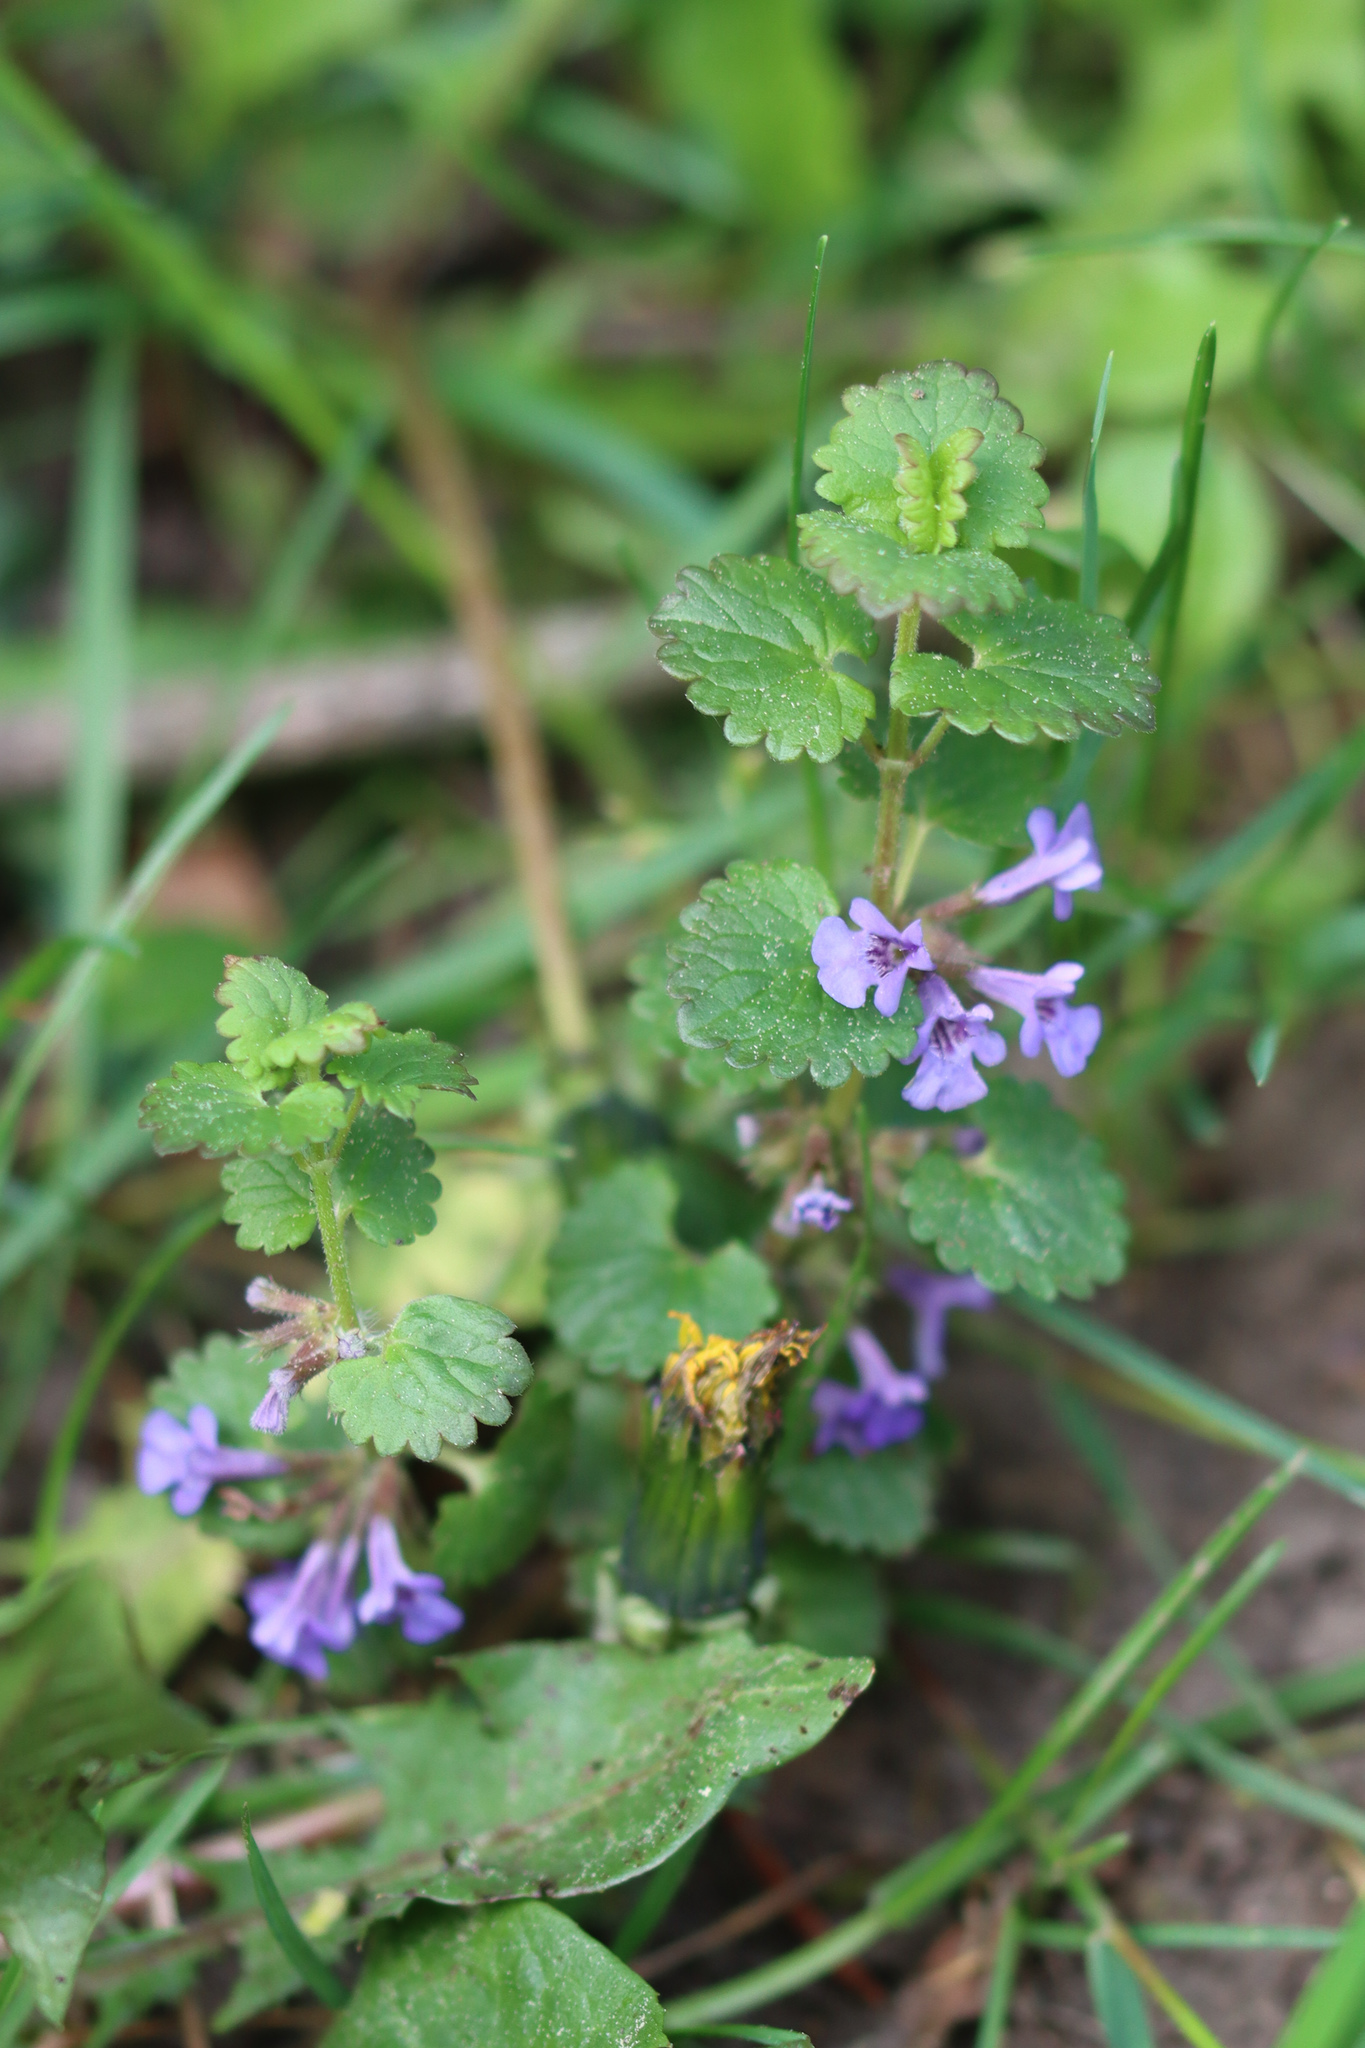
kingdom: Plantae
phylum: Tracheophyta
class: Magnoliopsida
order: Lamiales
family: Lamiaceae
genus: Glechoma
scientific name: Glechoma hederacea
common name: Ground ivy
